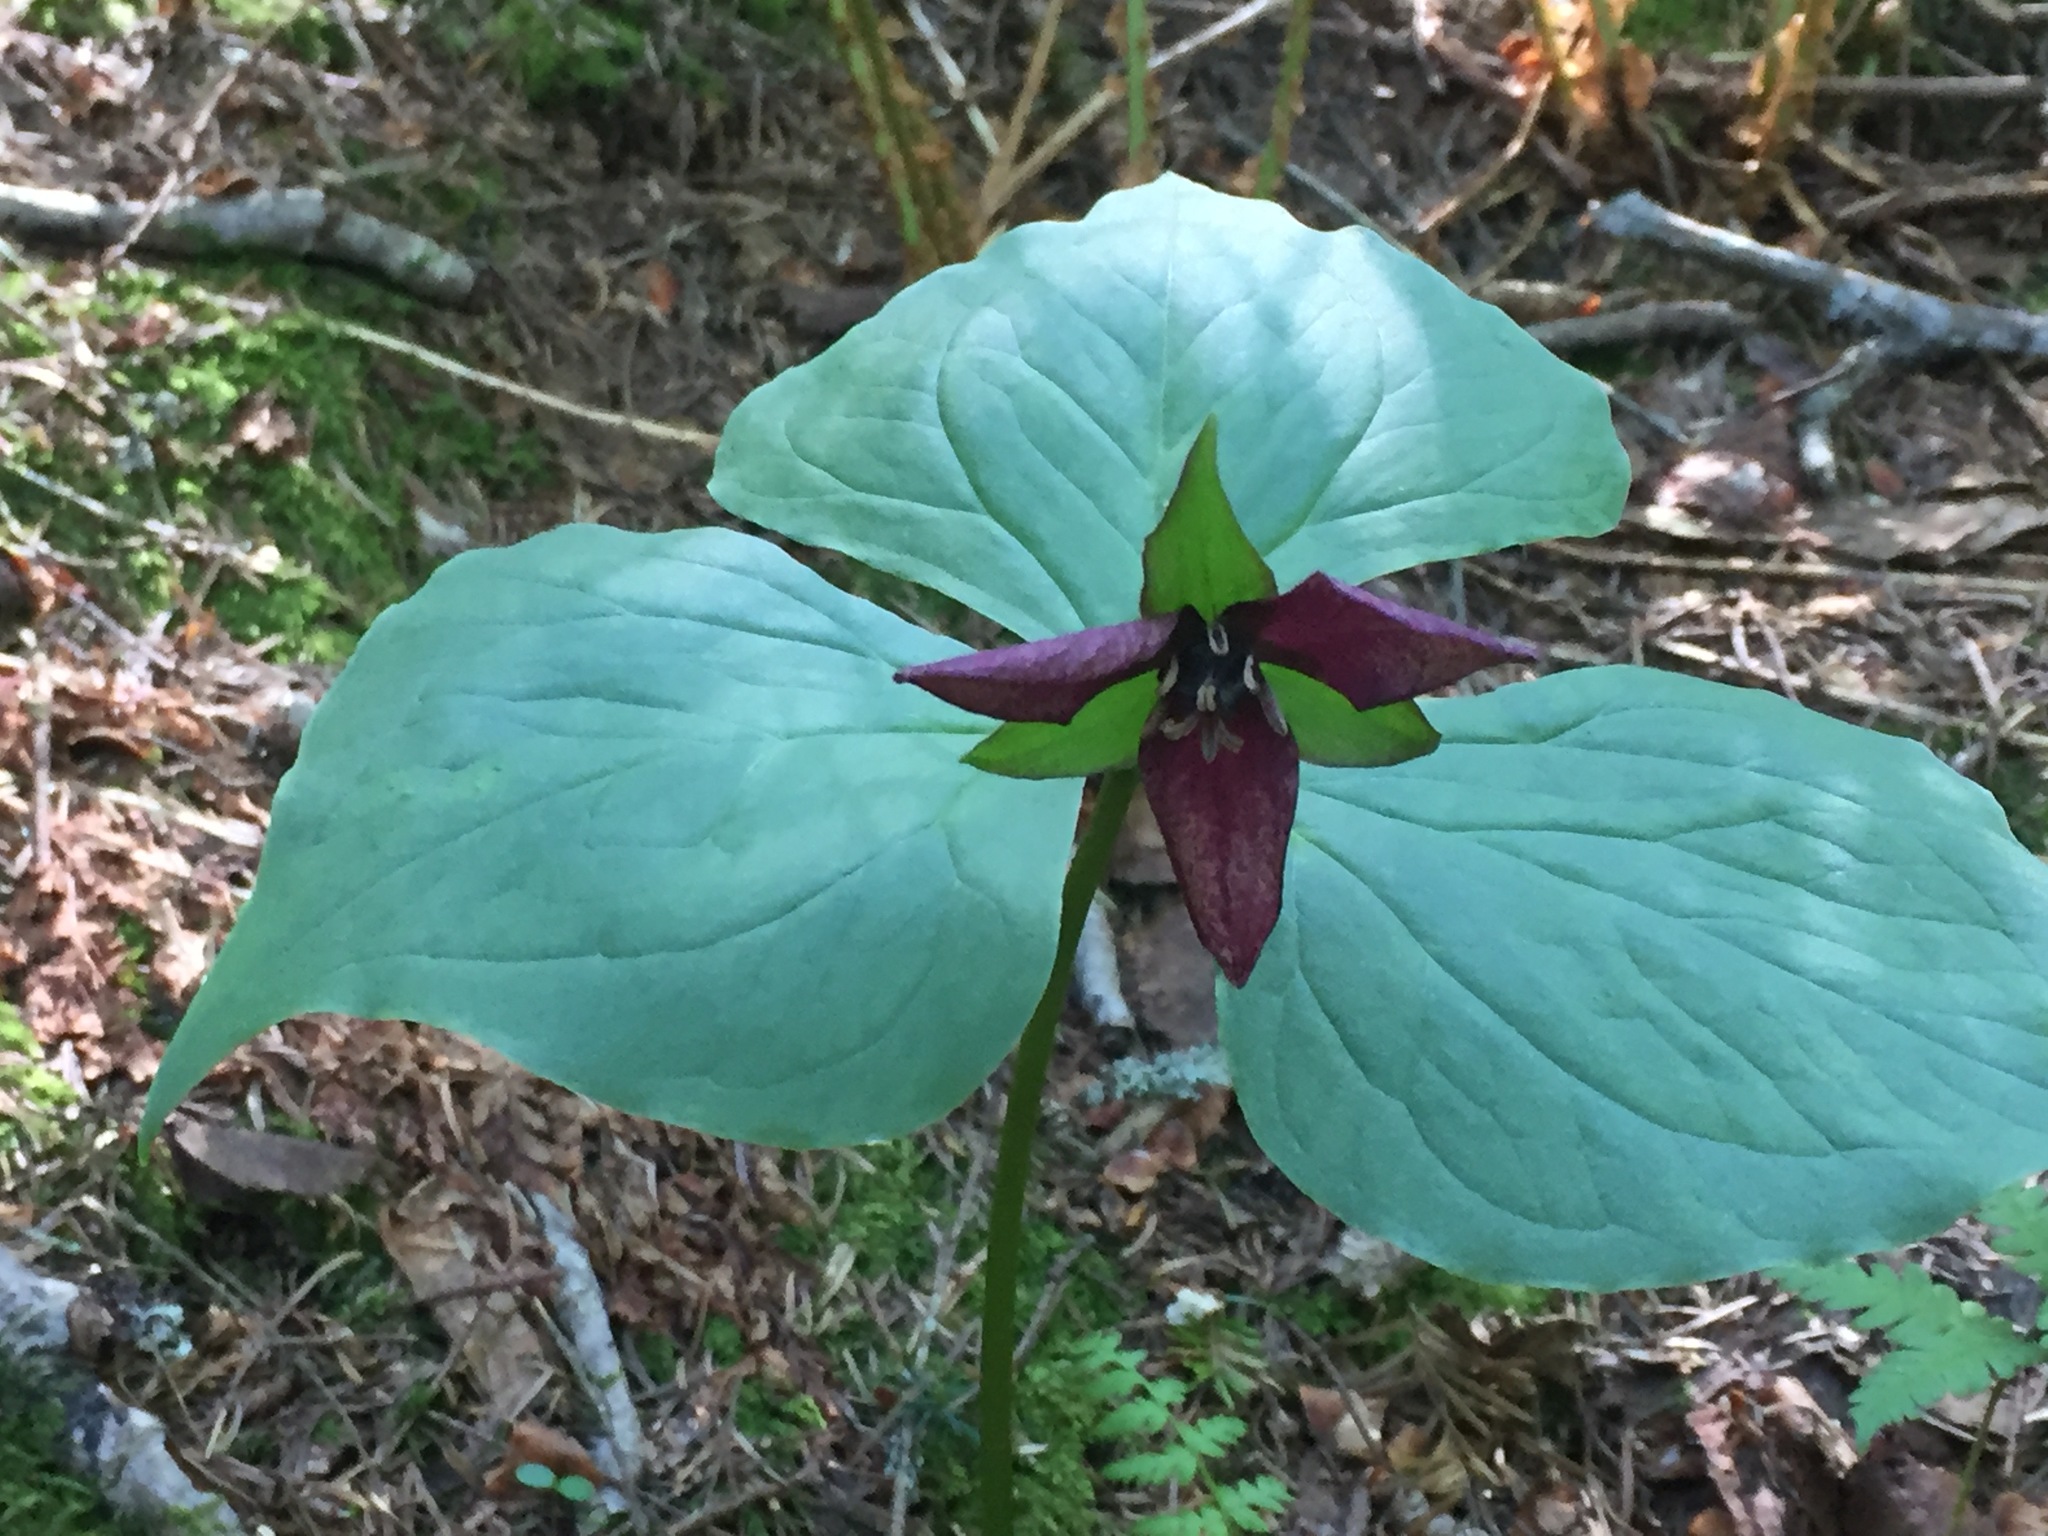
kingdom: Plantae
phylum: Tracheophyta
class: Liliopsida
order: Liliales
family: Melanthiaceae
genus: Trillium
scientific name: Trillium erectum
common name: Purple trillium
